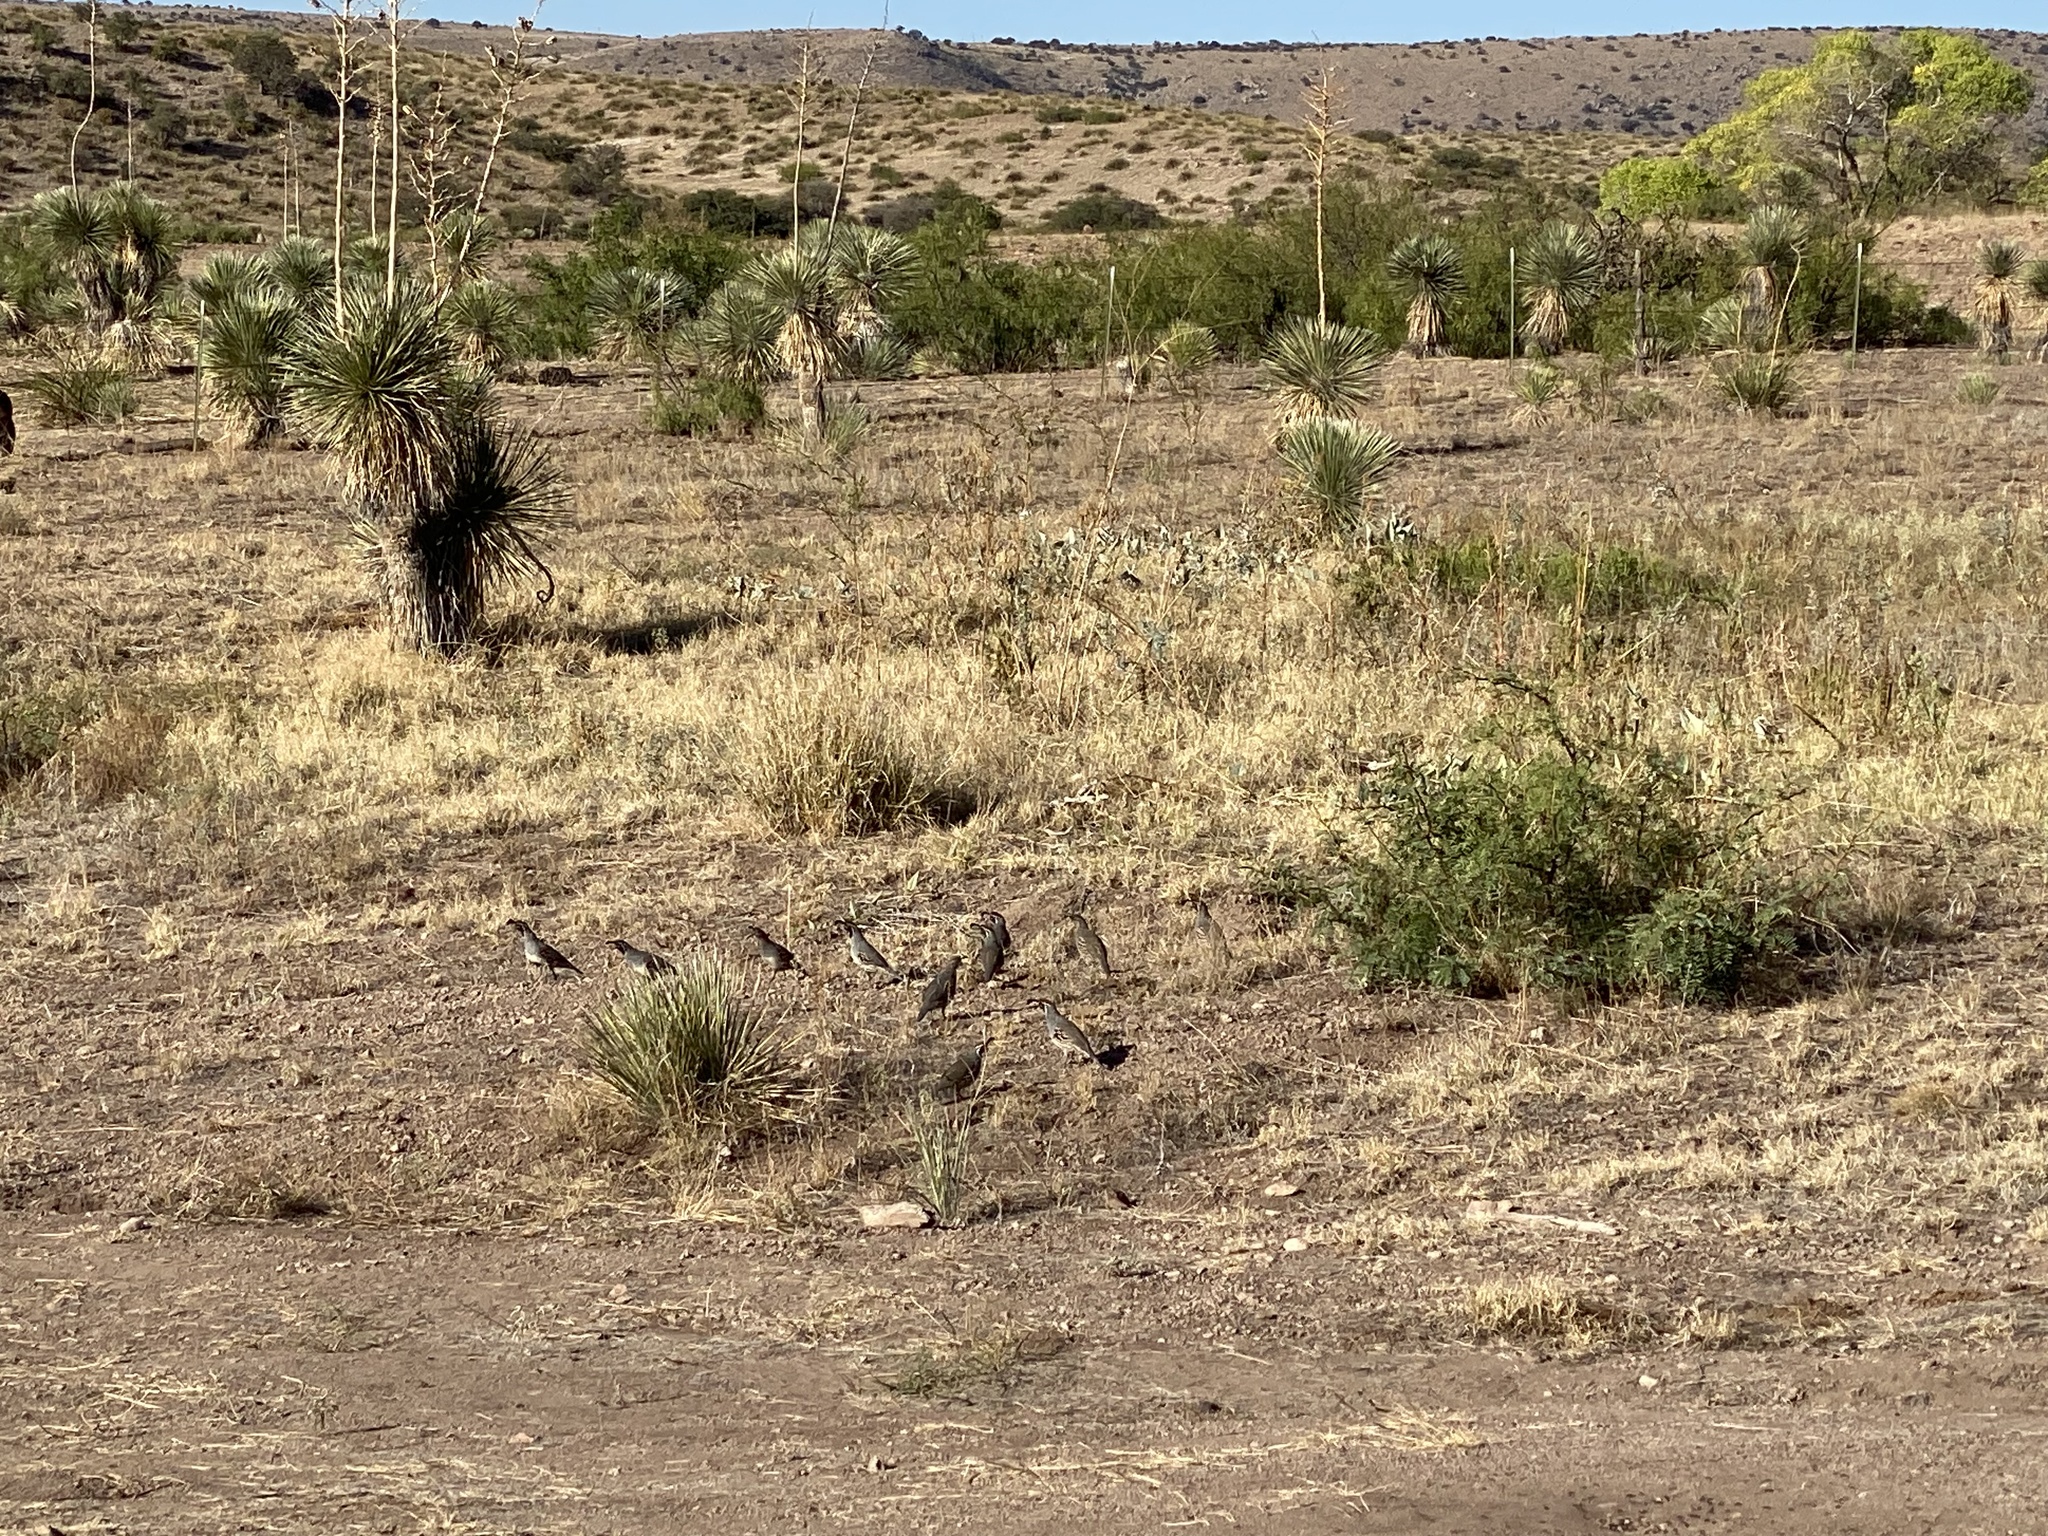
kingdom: Animalia
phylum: Chordata
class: Aves
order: Galliformes
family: Odontophoridae
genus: Callipepla
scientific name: Callipepla gambelii
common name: Gambel's quail
